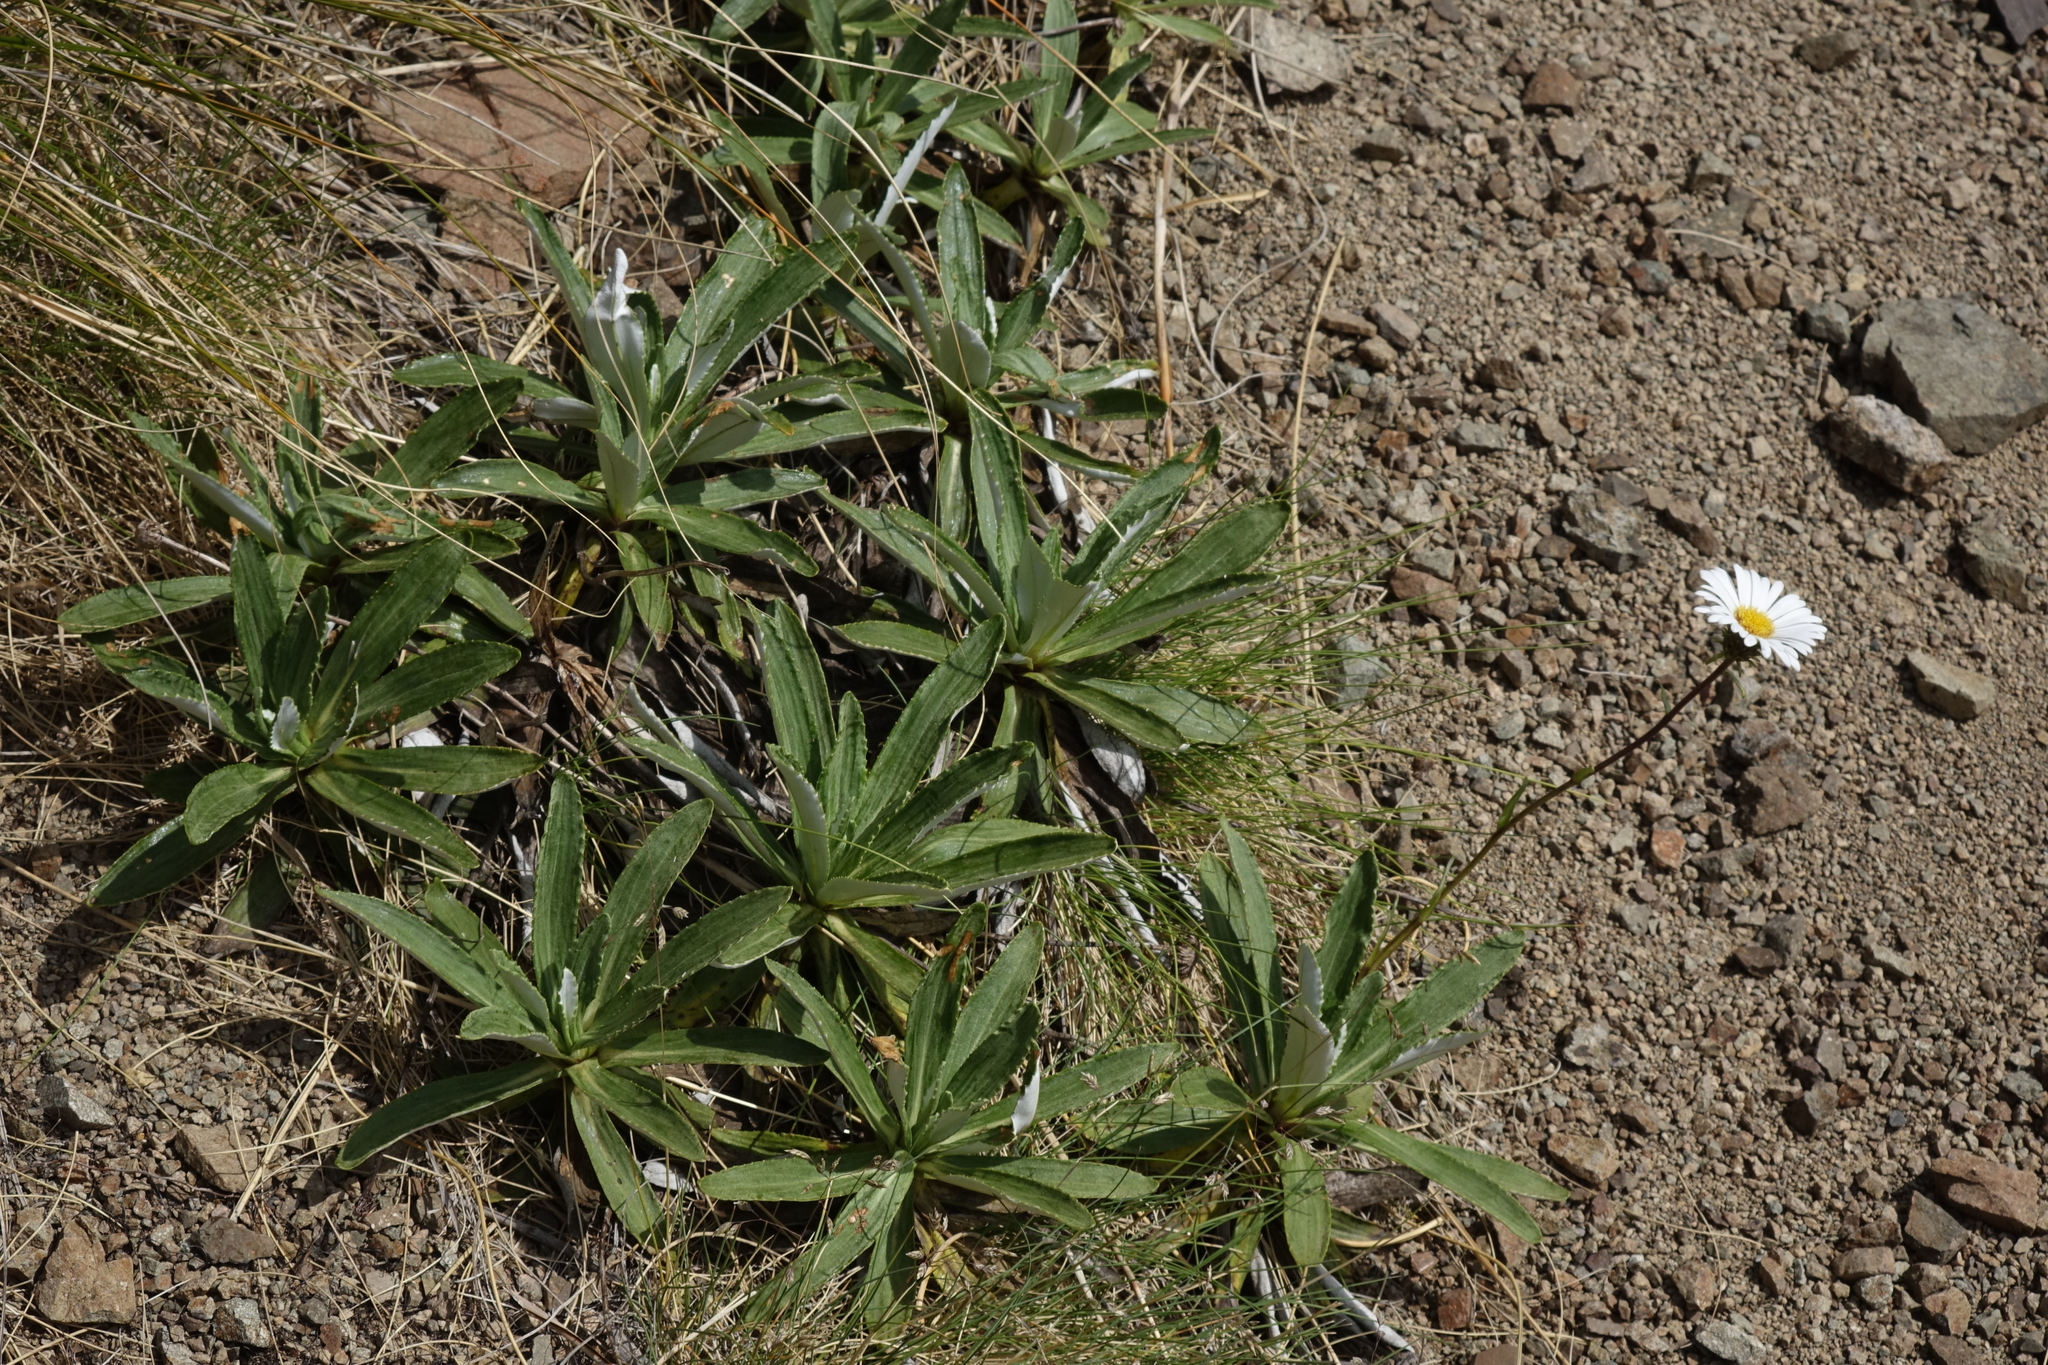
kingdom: Plantae
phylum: Tracheophyta
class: Magnoliopsida
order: Asterales
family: Asteraceae
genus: Celmisia
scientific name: Celmisia densiflora
